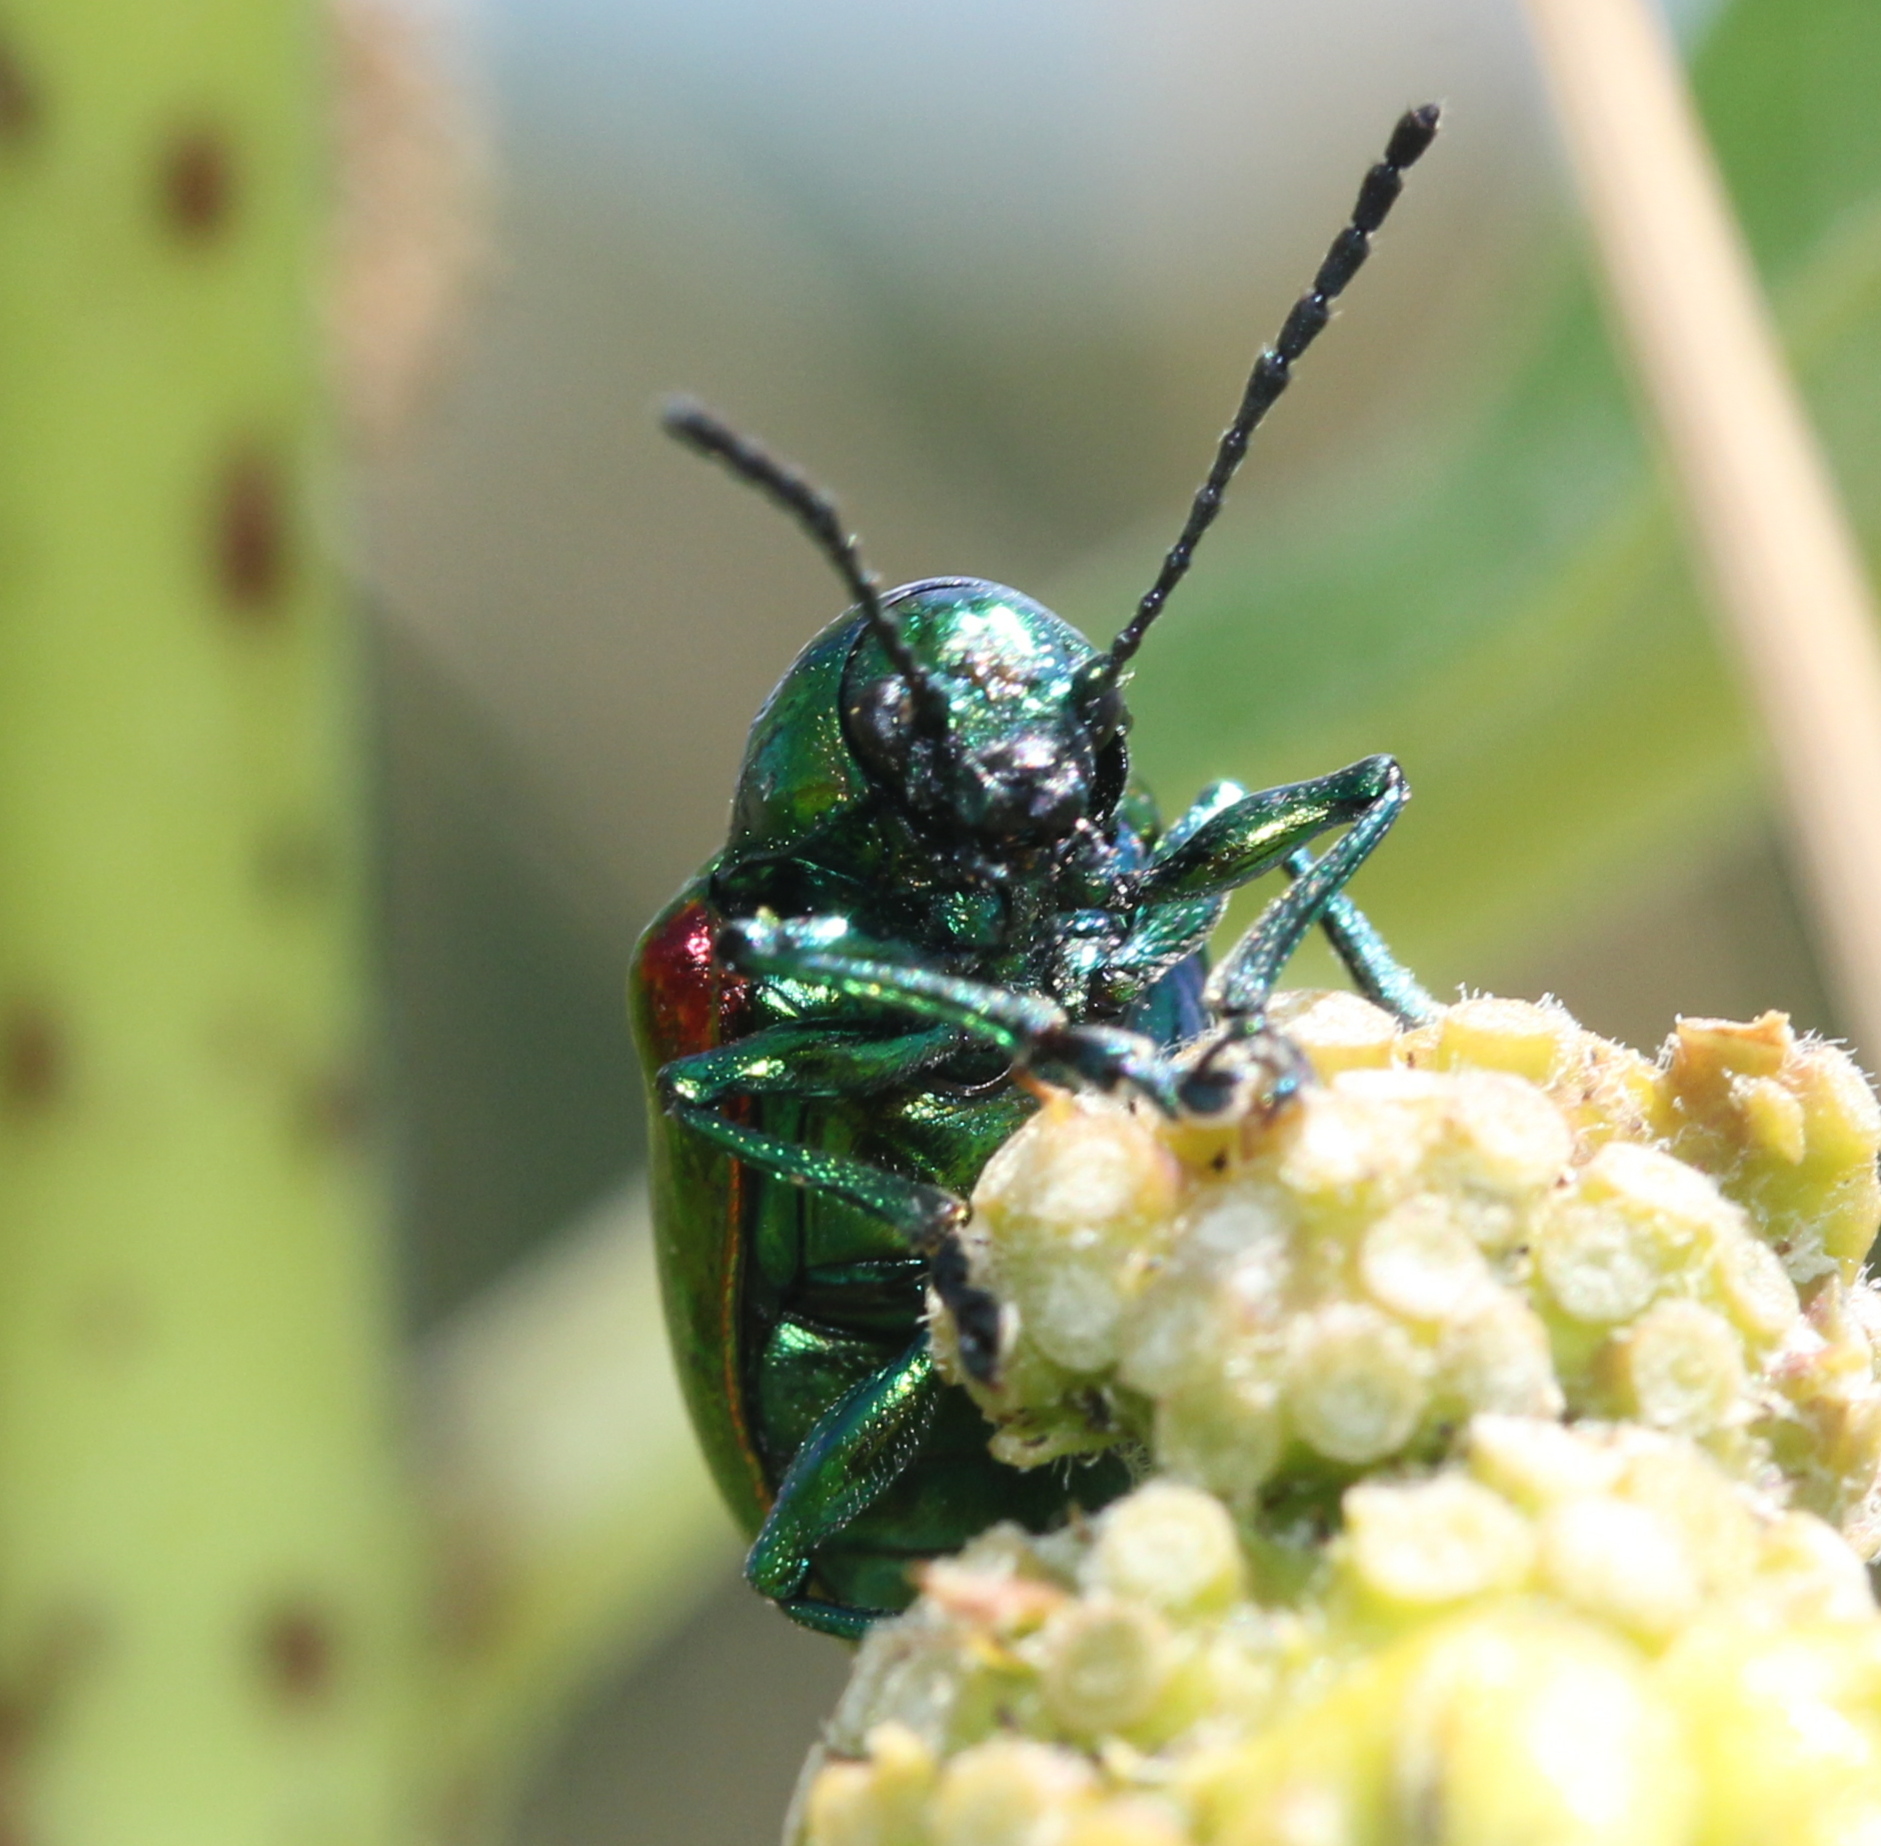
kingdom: Animalia
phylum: Arthropoda
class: Insecta
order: Coleoptera
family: Chrysomelidae
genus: Chrysochus
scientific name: Chrysochus auratus
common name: Dogbane leaf beetle
